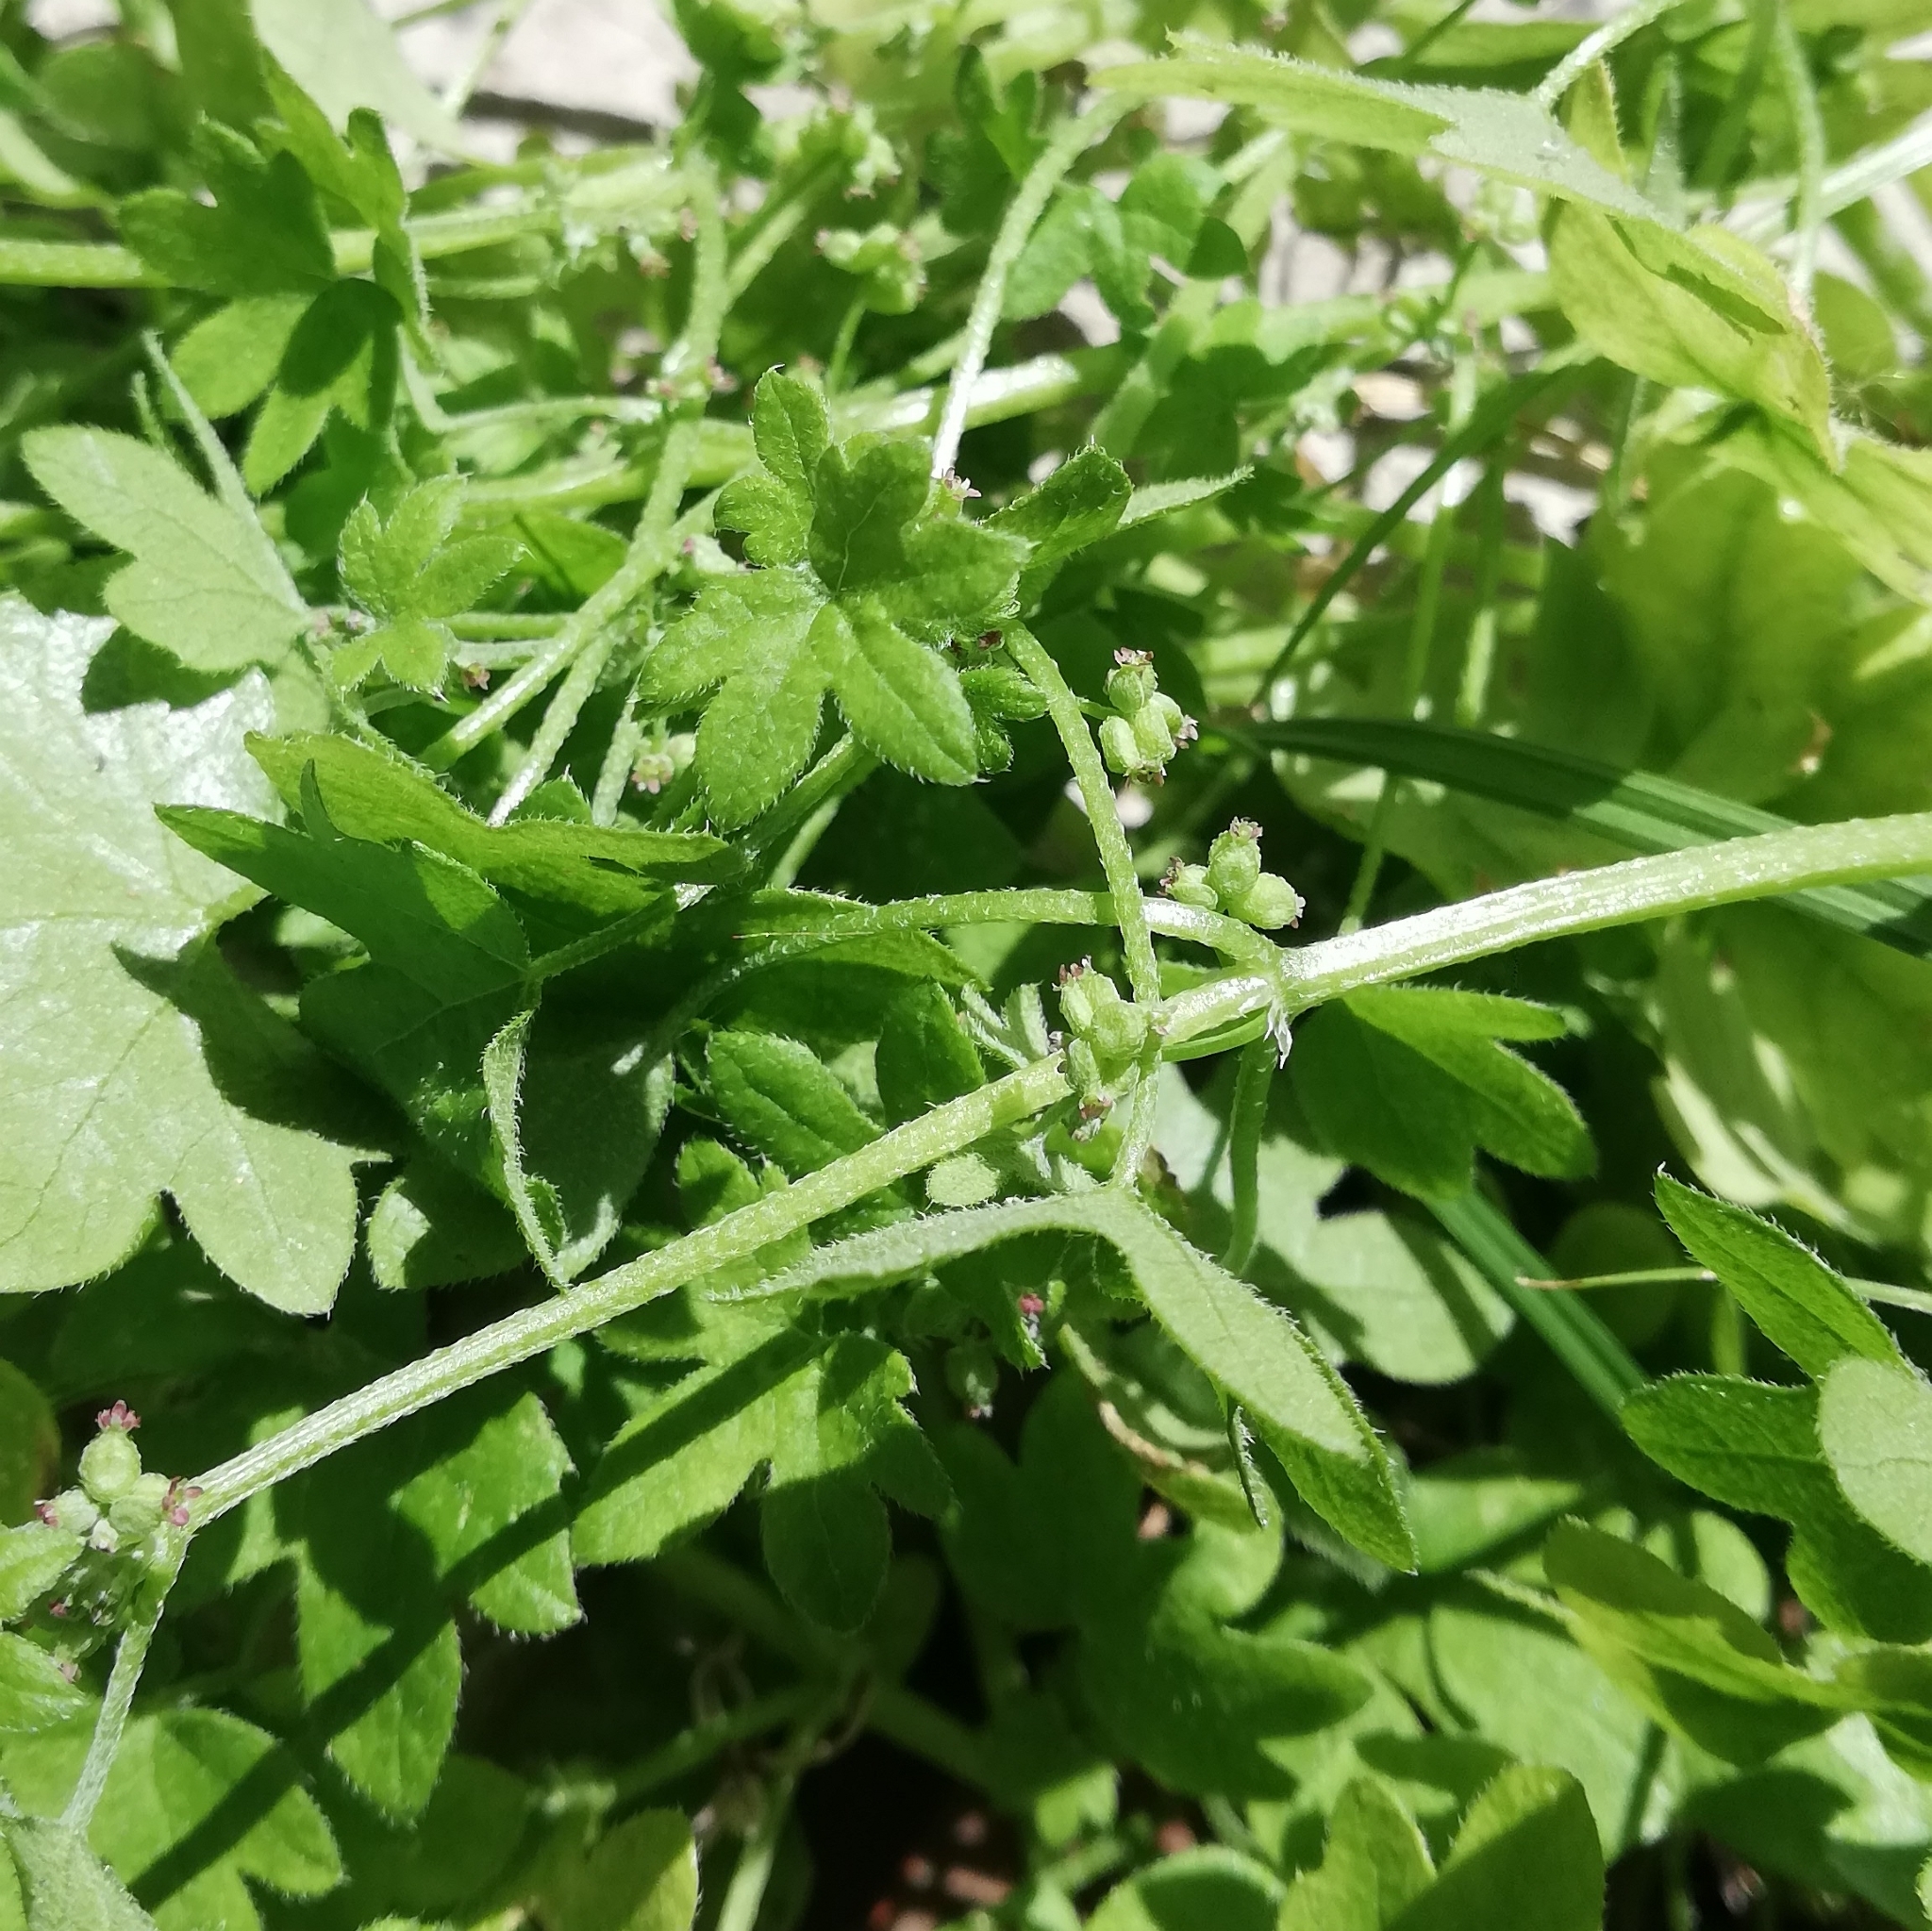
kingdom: Plantae
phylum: Tracheophyta
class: Magnoliopsida
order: Apiales
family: Apiaceae
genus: Bowlesia
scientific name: Bowlesia incana
